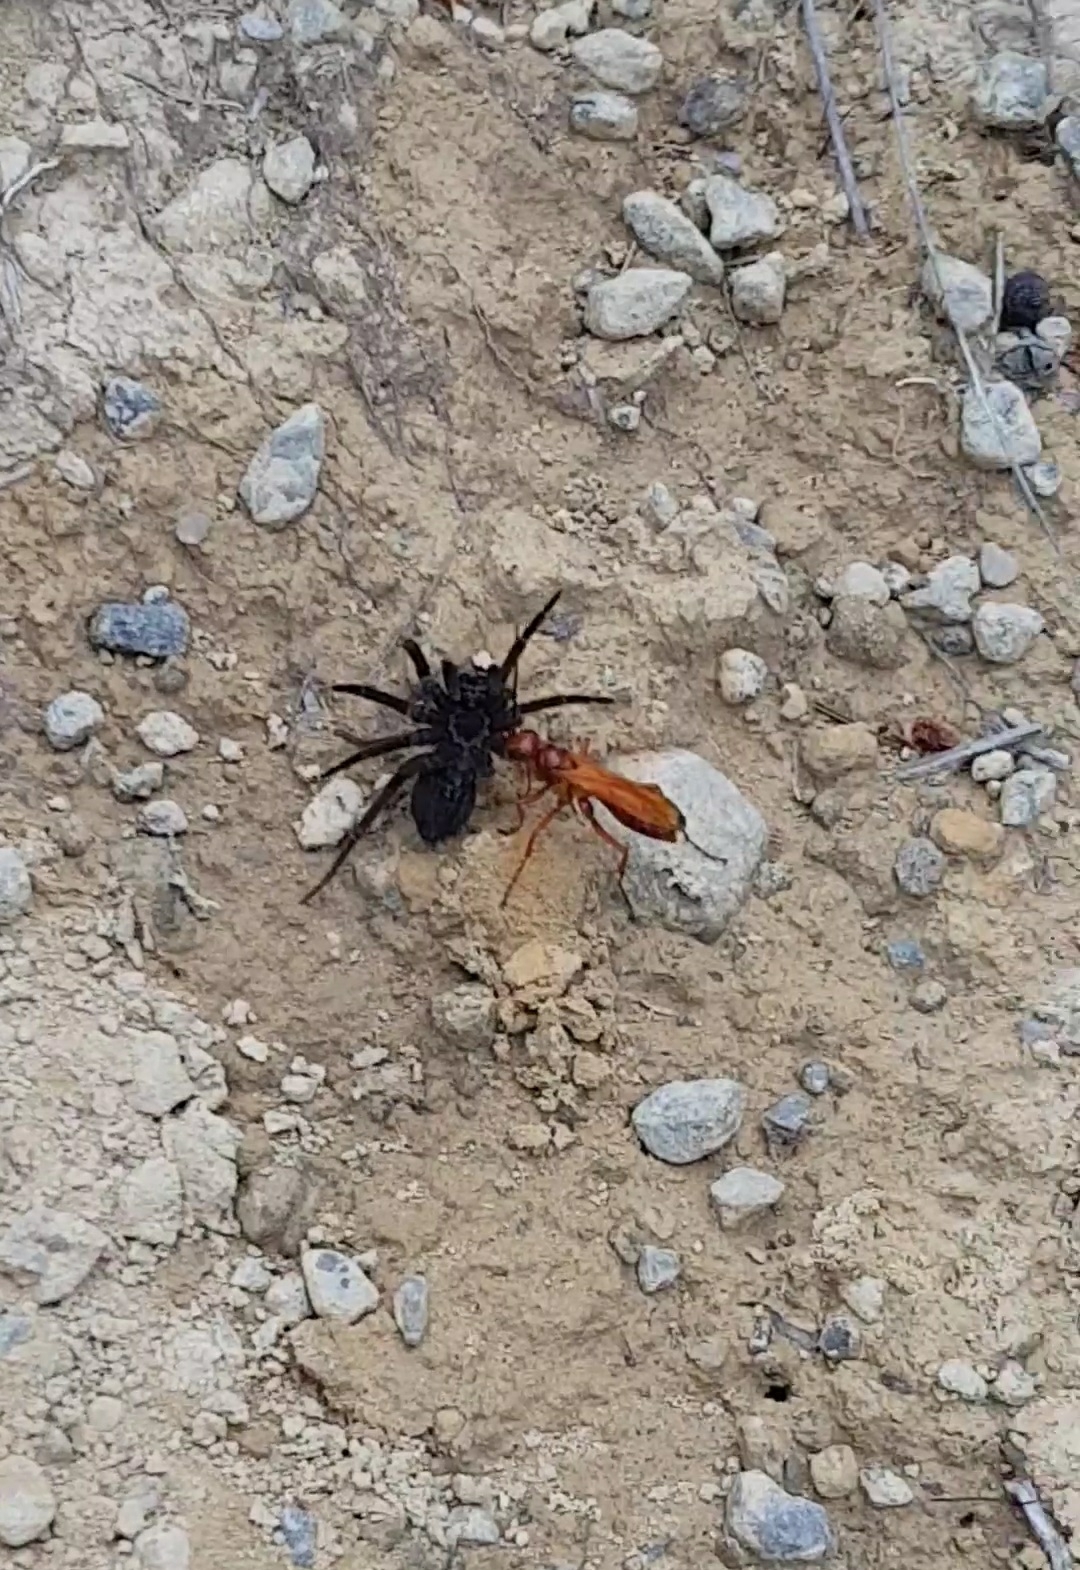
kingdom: Animalia
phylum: Arthropoda
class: Insecta
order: Hymenoptera
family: Pompilidae
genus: Sphictostethus
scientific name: Sphictostethus nitidus
